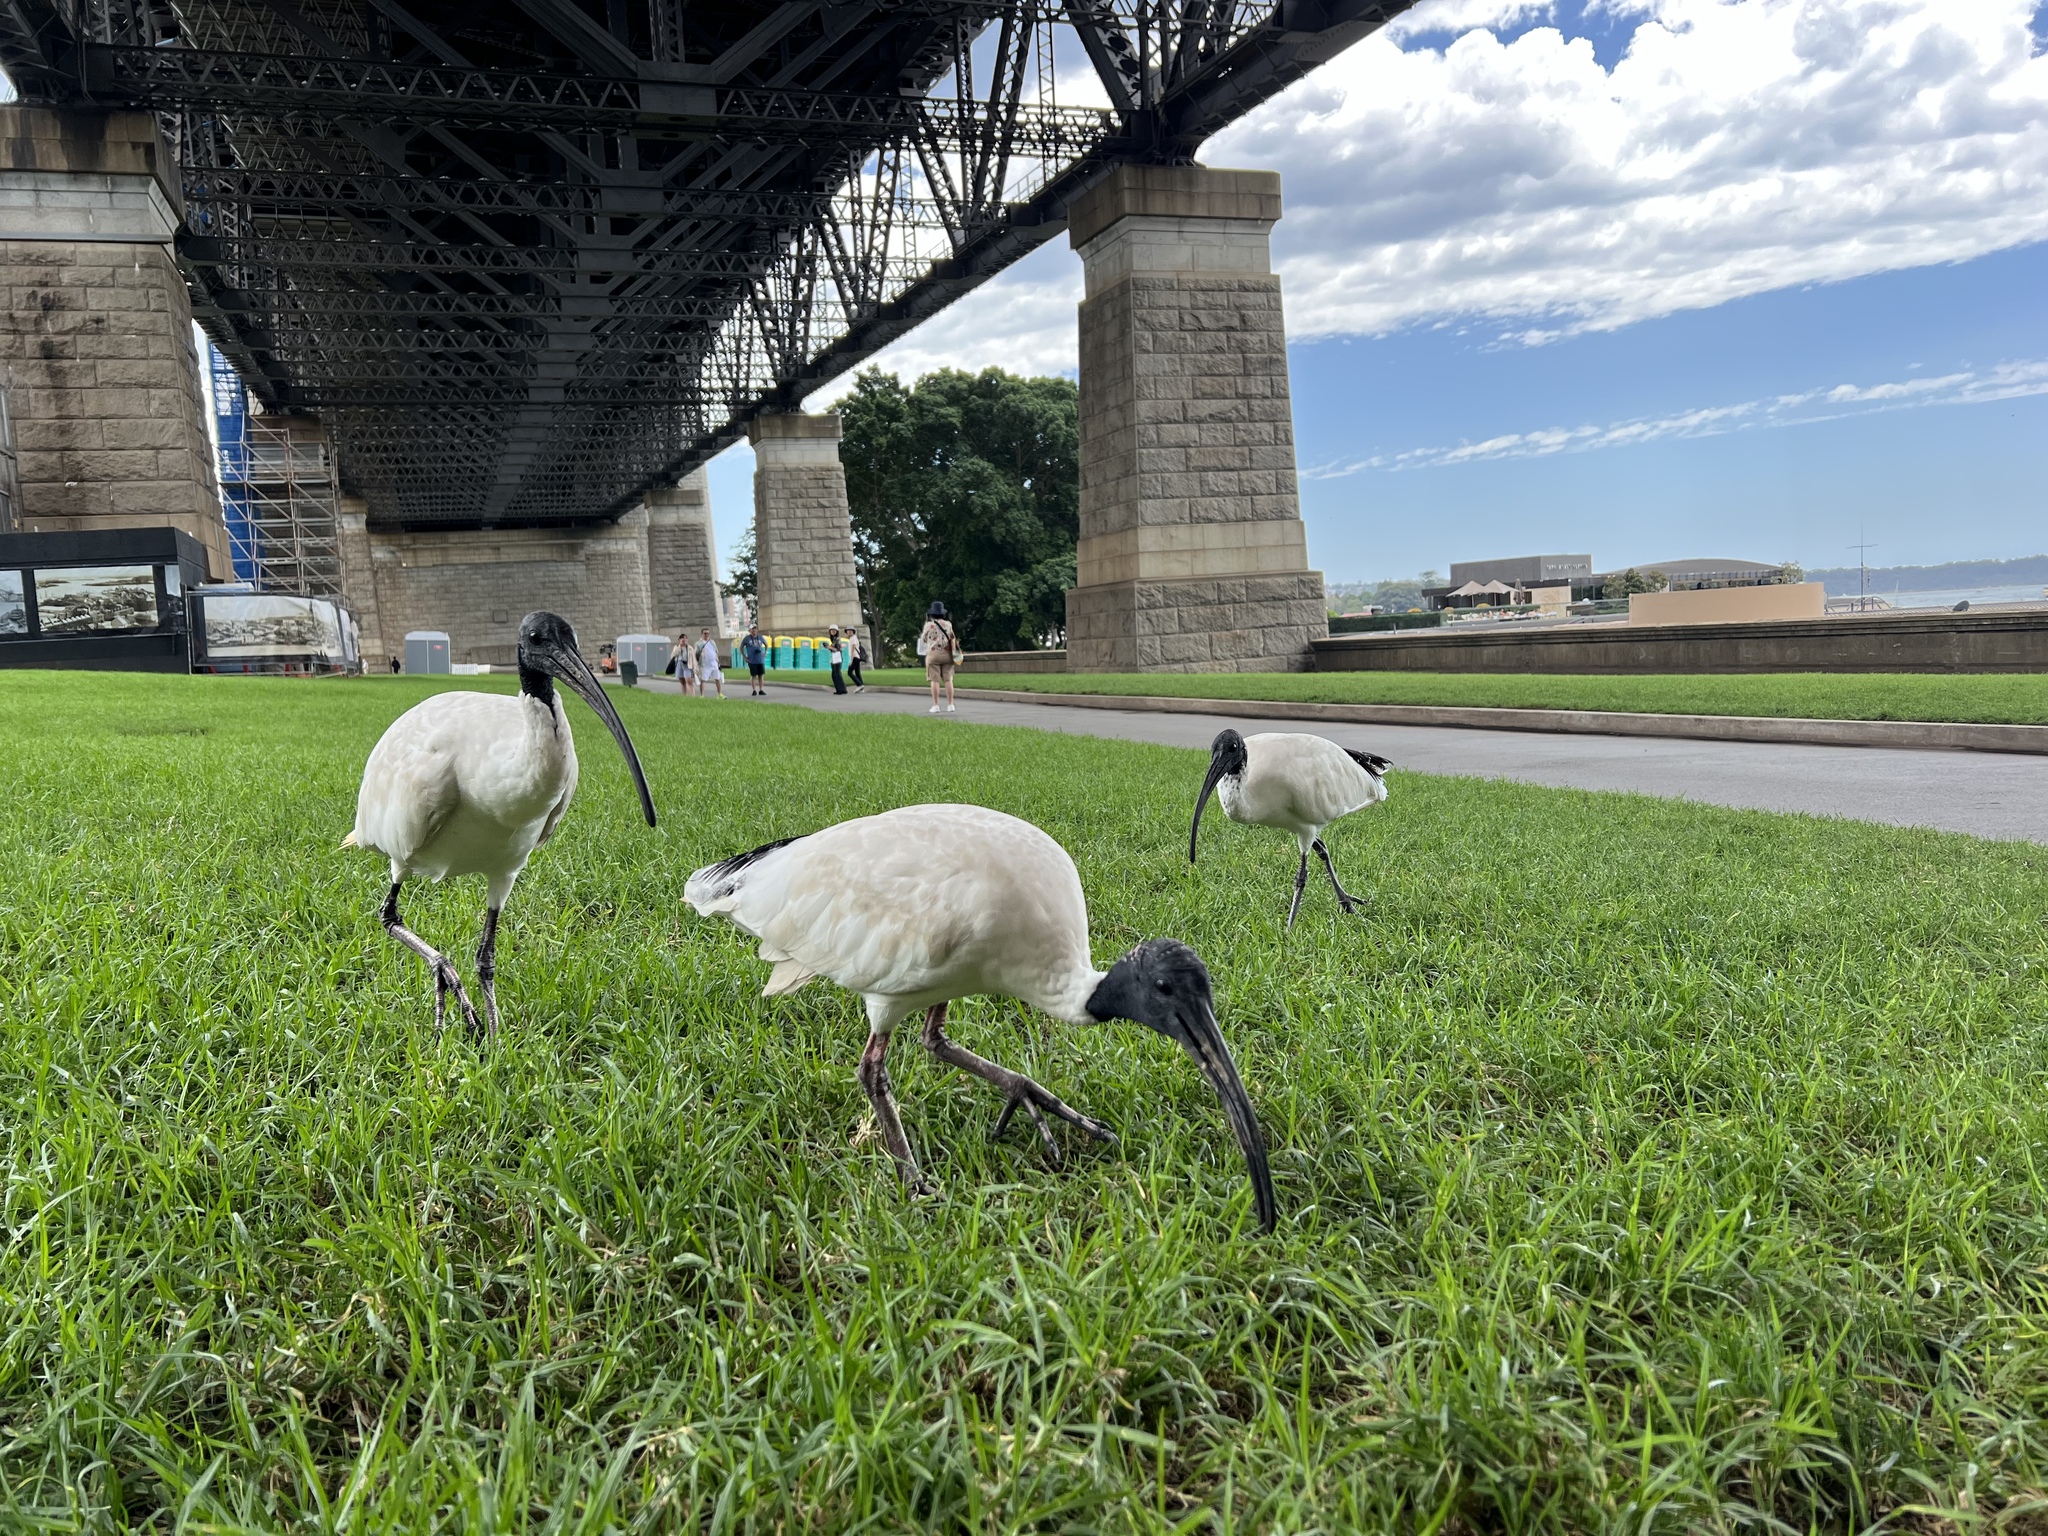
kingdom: Animalia
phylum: Chordata
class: Aves
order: Pelecaniformes
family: Threskiornithidae
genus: Threskiornis
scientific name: Threskiornis molucca
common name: Australian white ibis
